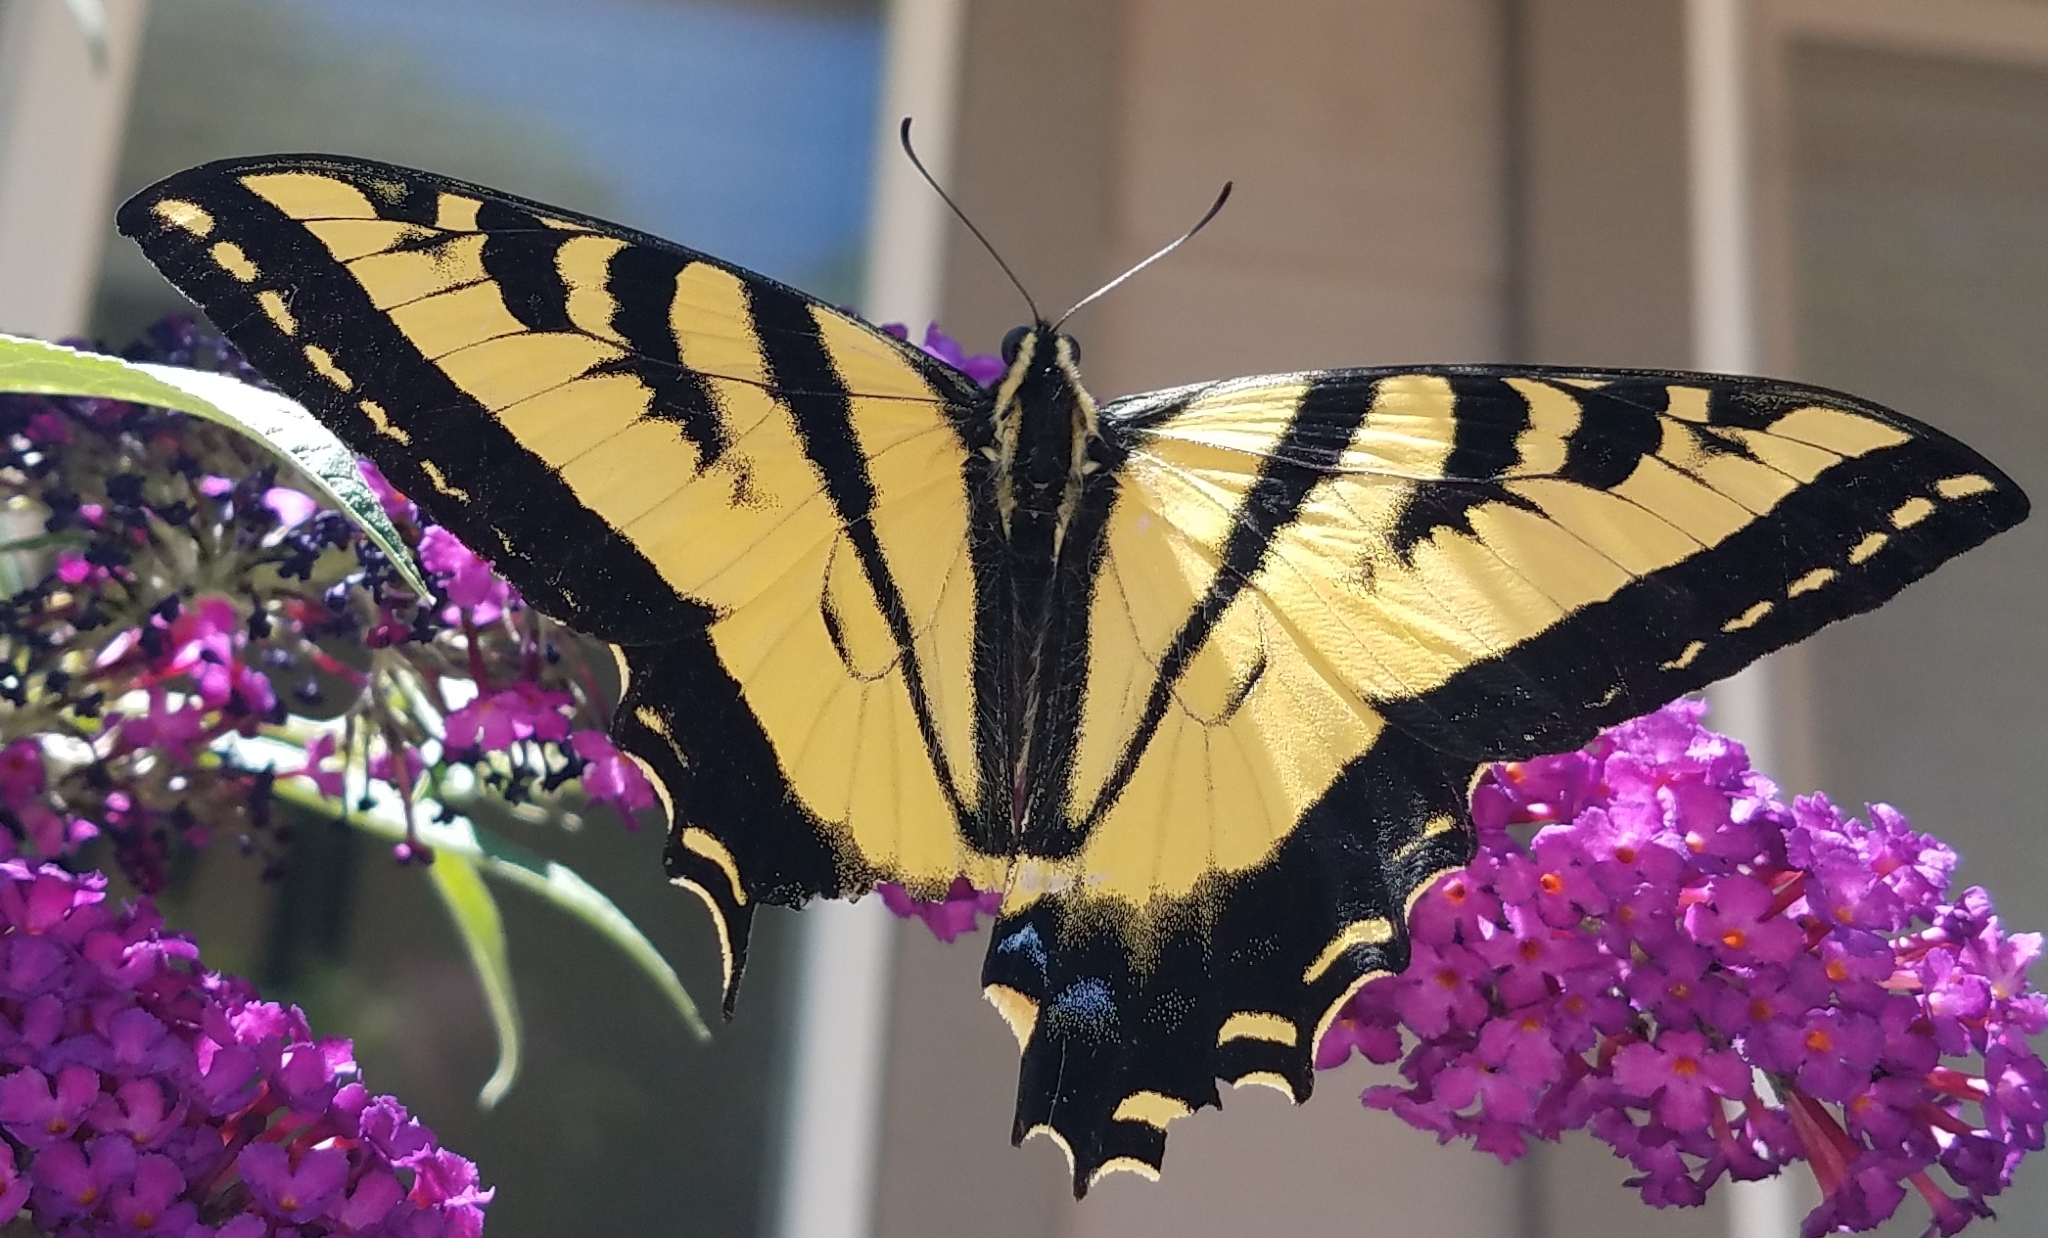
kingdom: Animalia
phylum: Arthropoda
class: Insecta
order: Lepidoptera
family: Papilionidae
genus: Papilio
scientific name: Papilio rutulus
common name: Western tiger swallowtail
